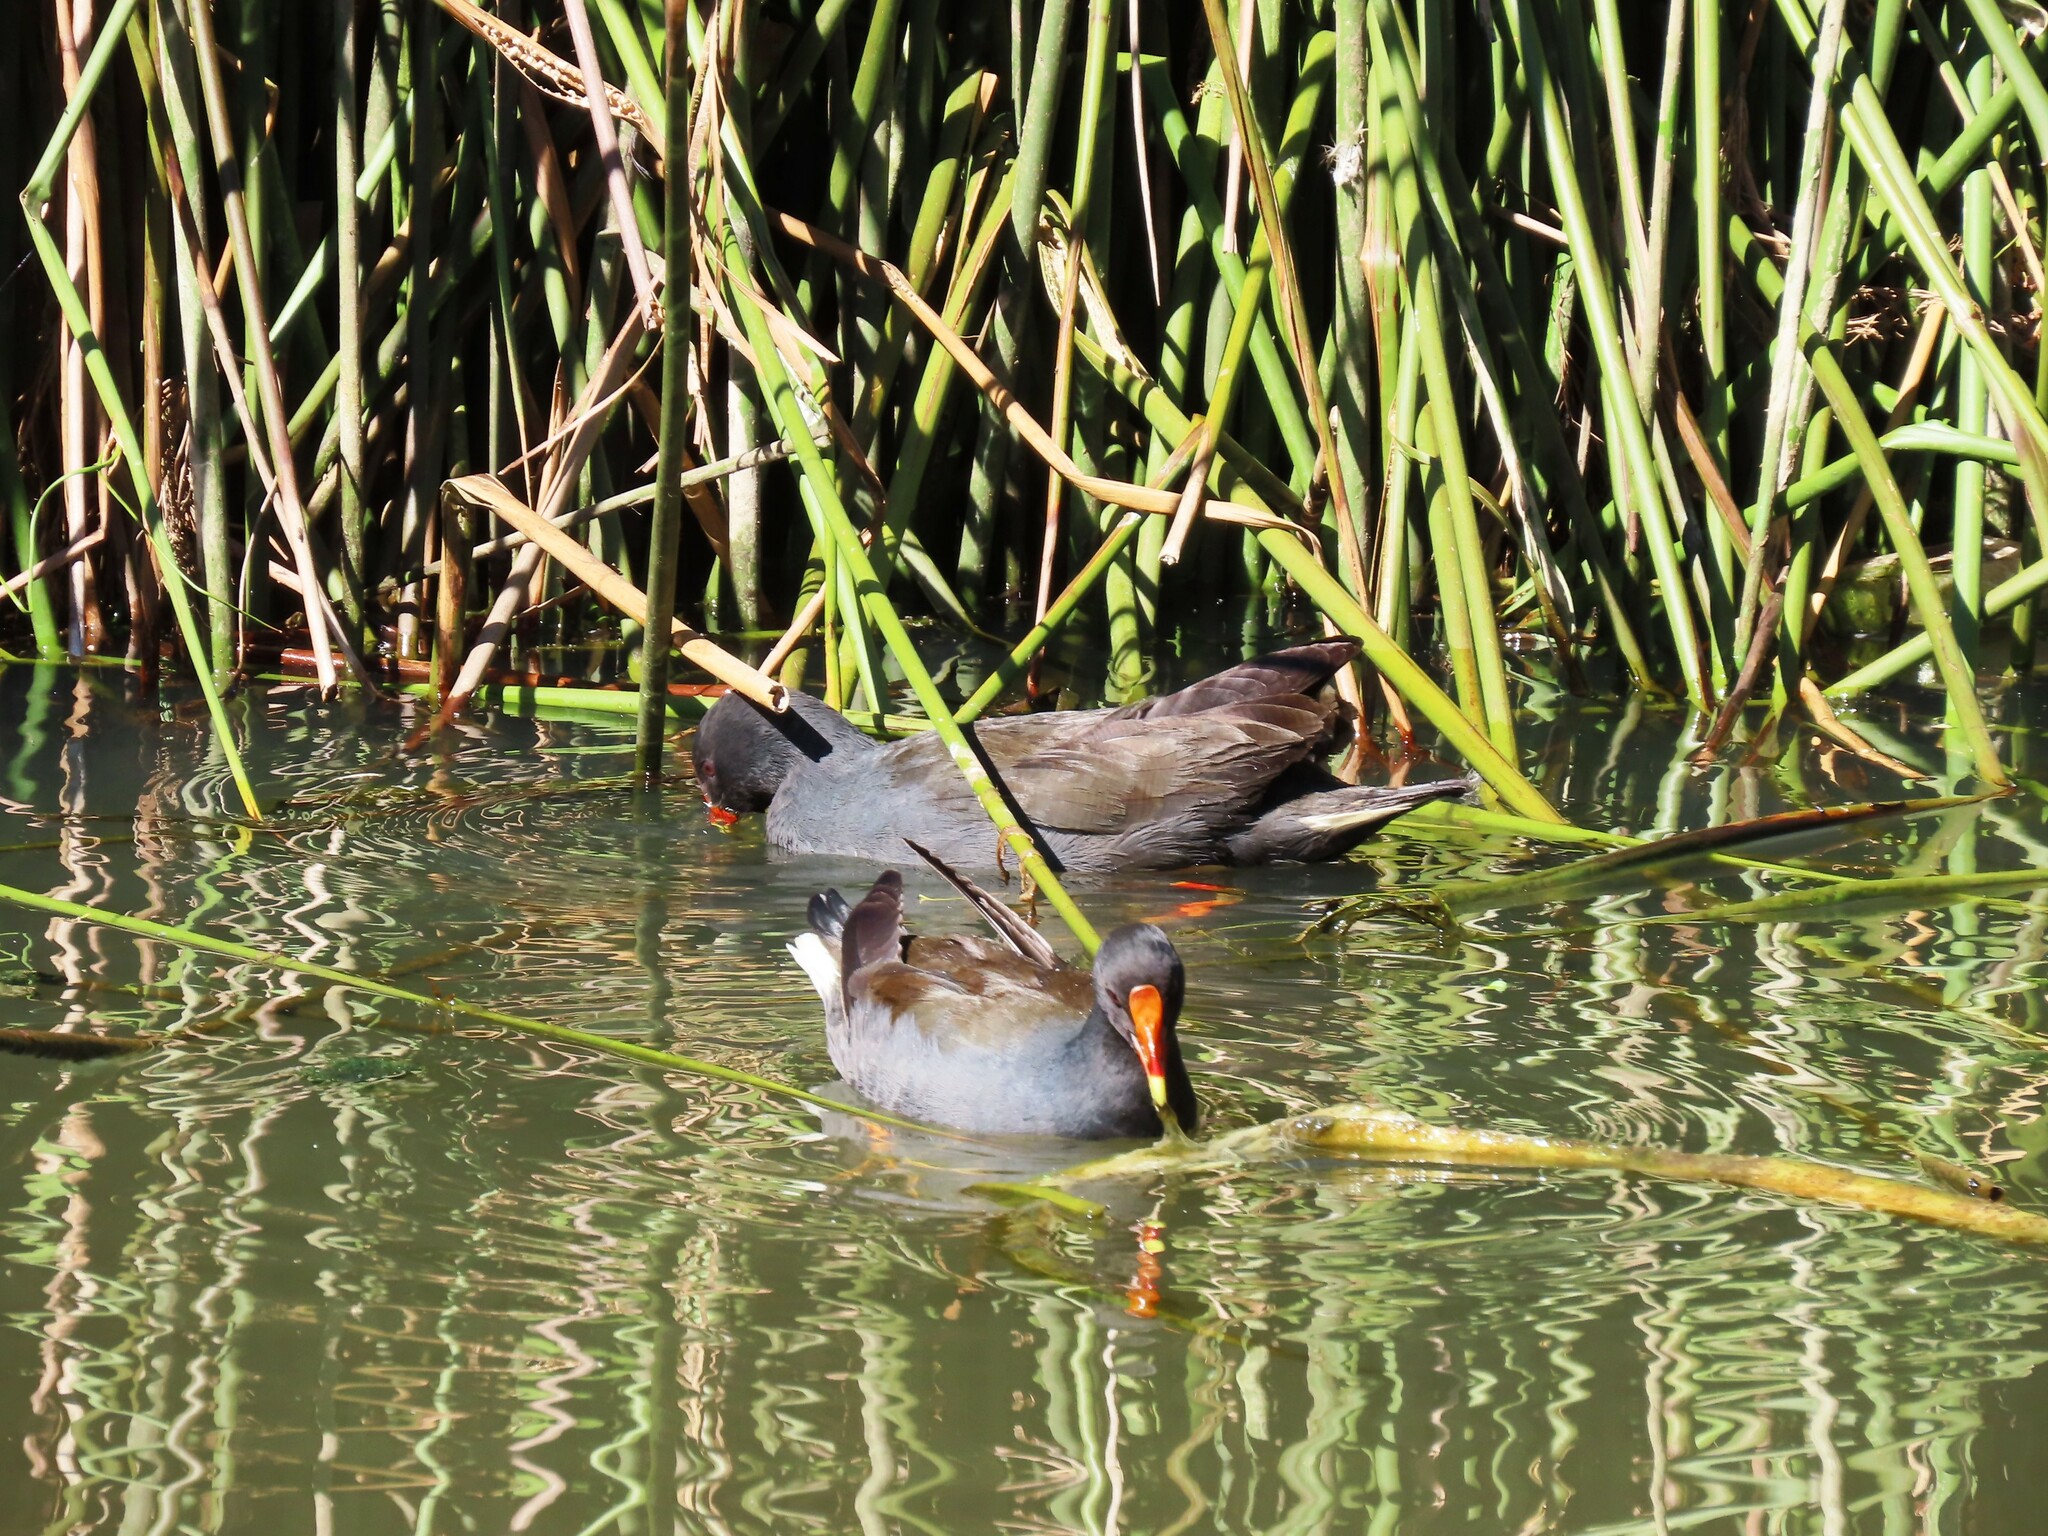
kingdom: Animalia
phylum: Chordata
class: Aves
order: Gruiformes
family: Rallidae
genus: Gallinula
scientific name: Gallinula tenebrosa
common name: Dusky moorhen
